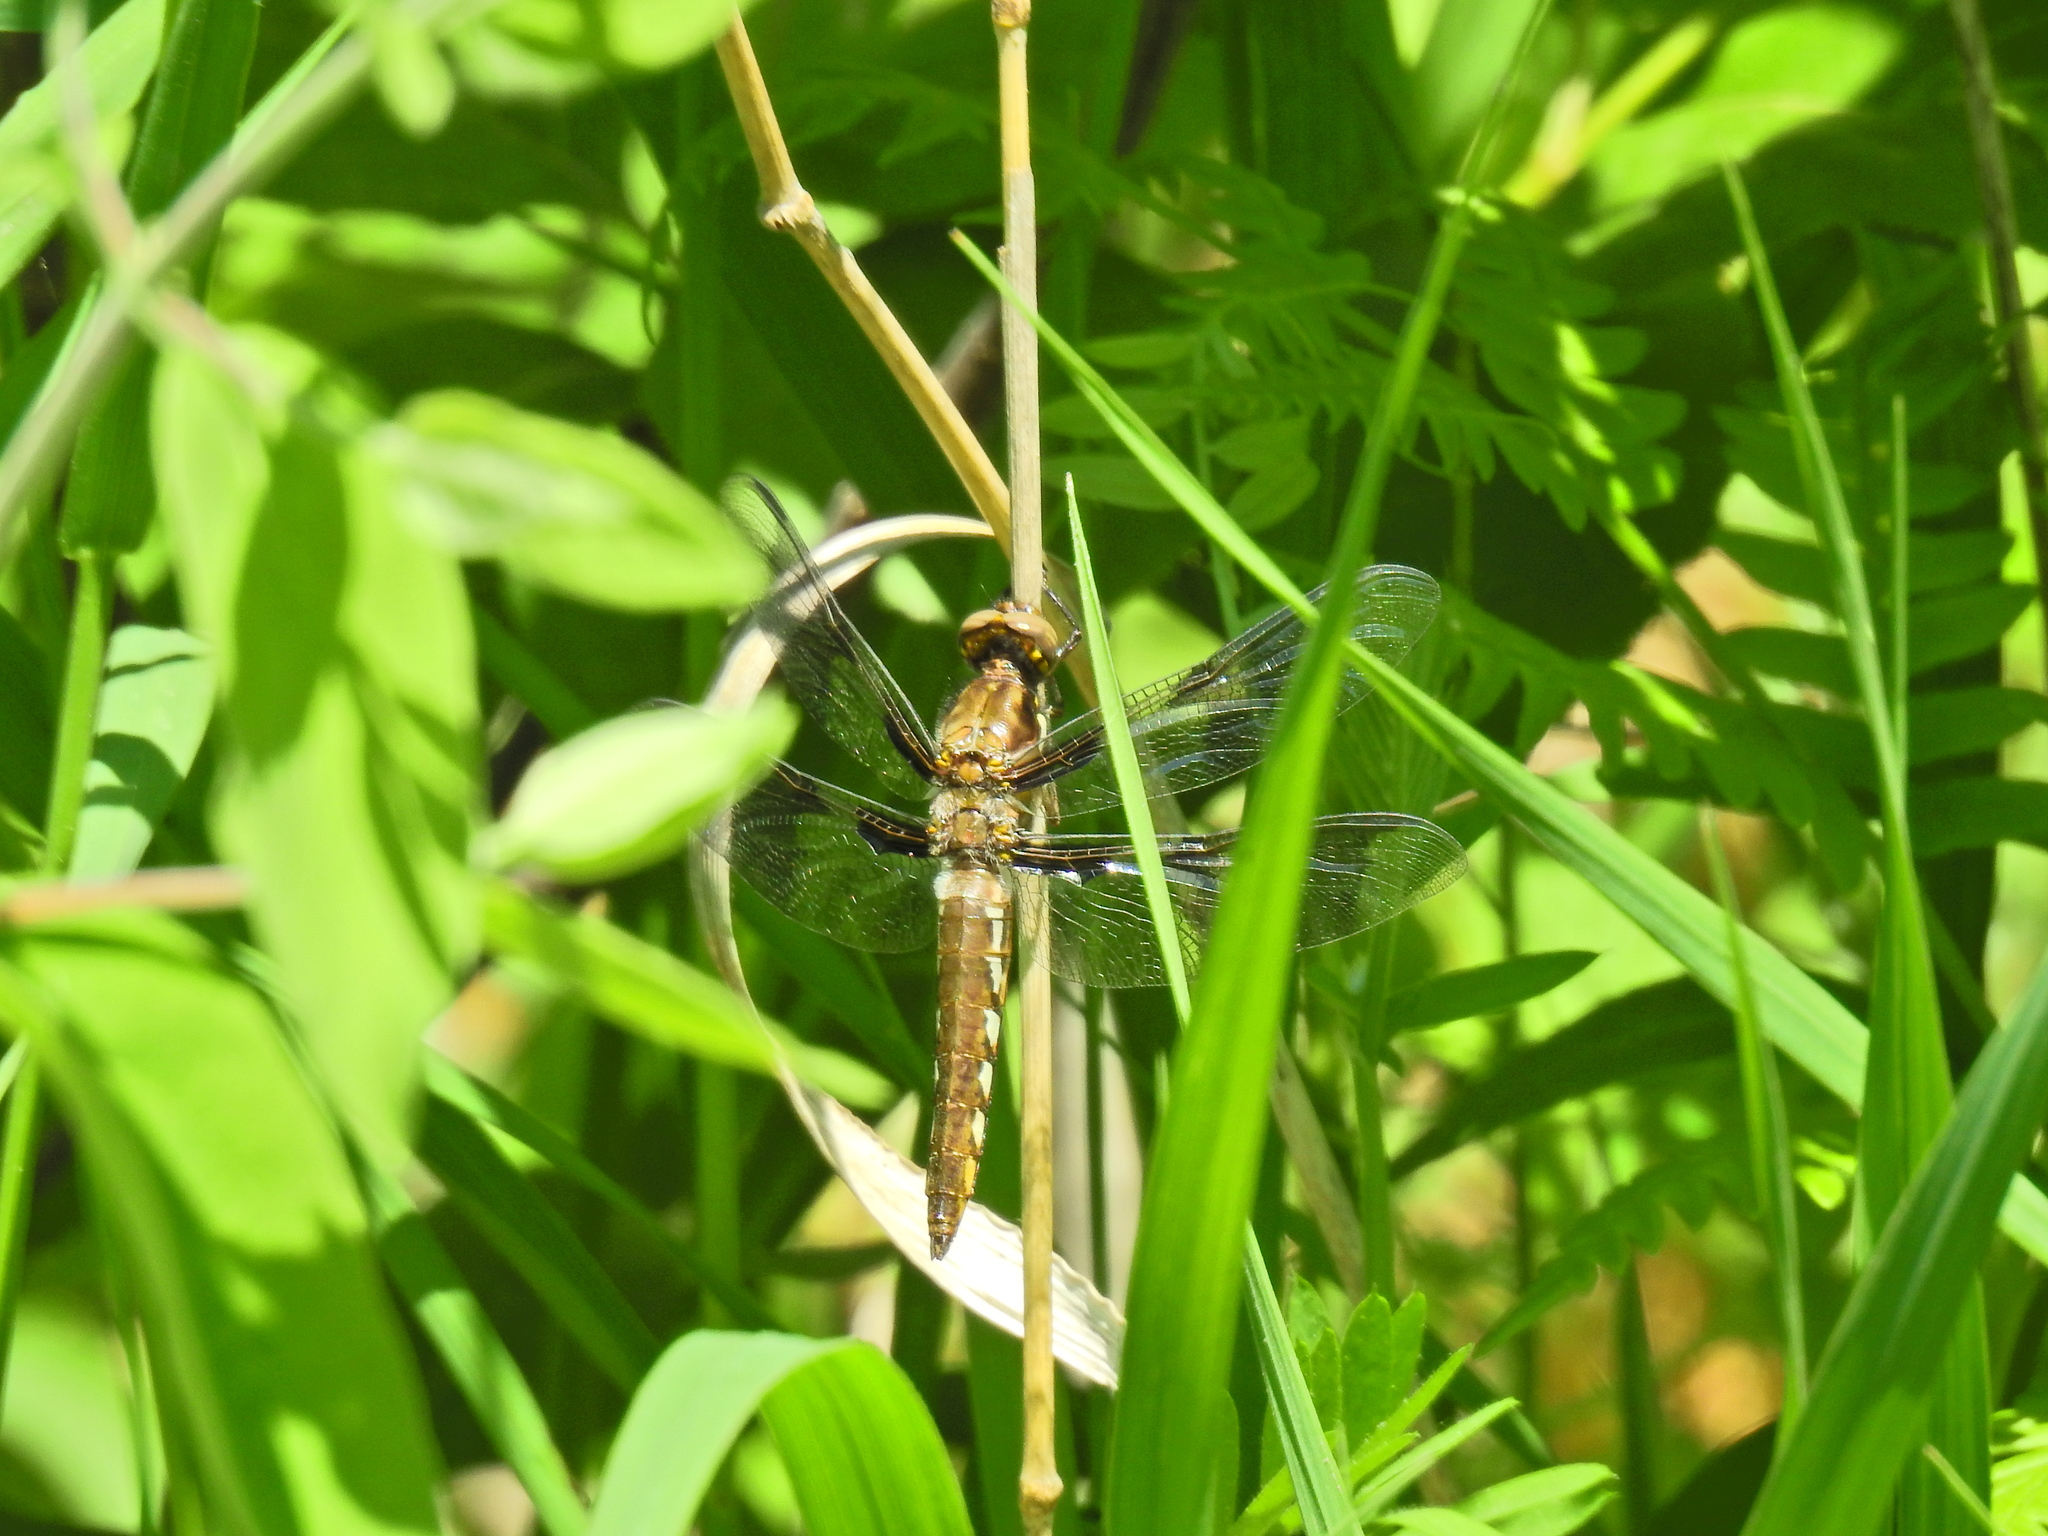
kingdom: Animalia
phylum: Arthropoda
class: Insecta
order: Odonata
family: Libellulidae
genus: Plathemis
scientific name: Plathemis lydia
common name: Common whitetail
